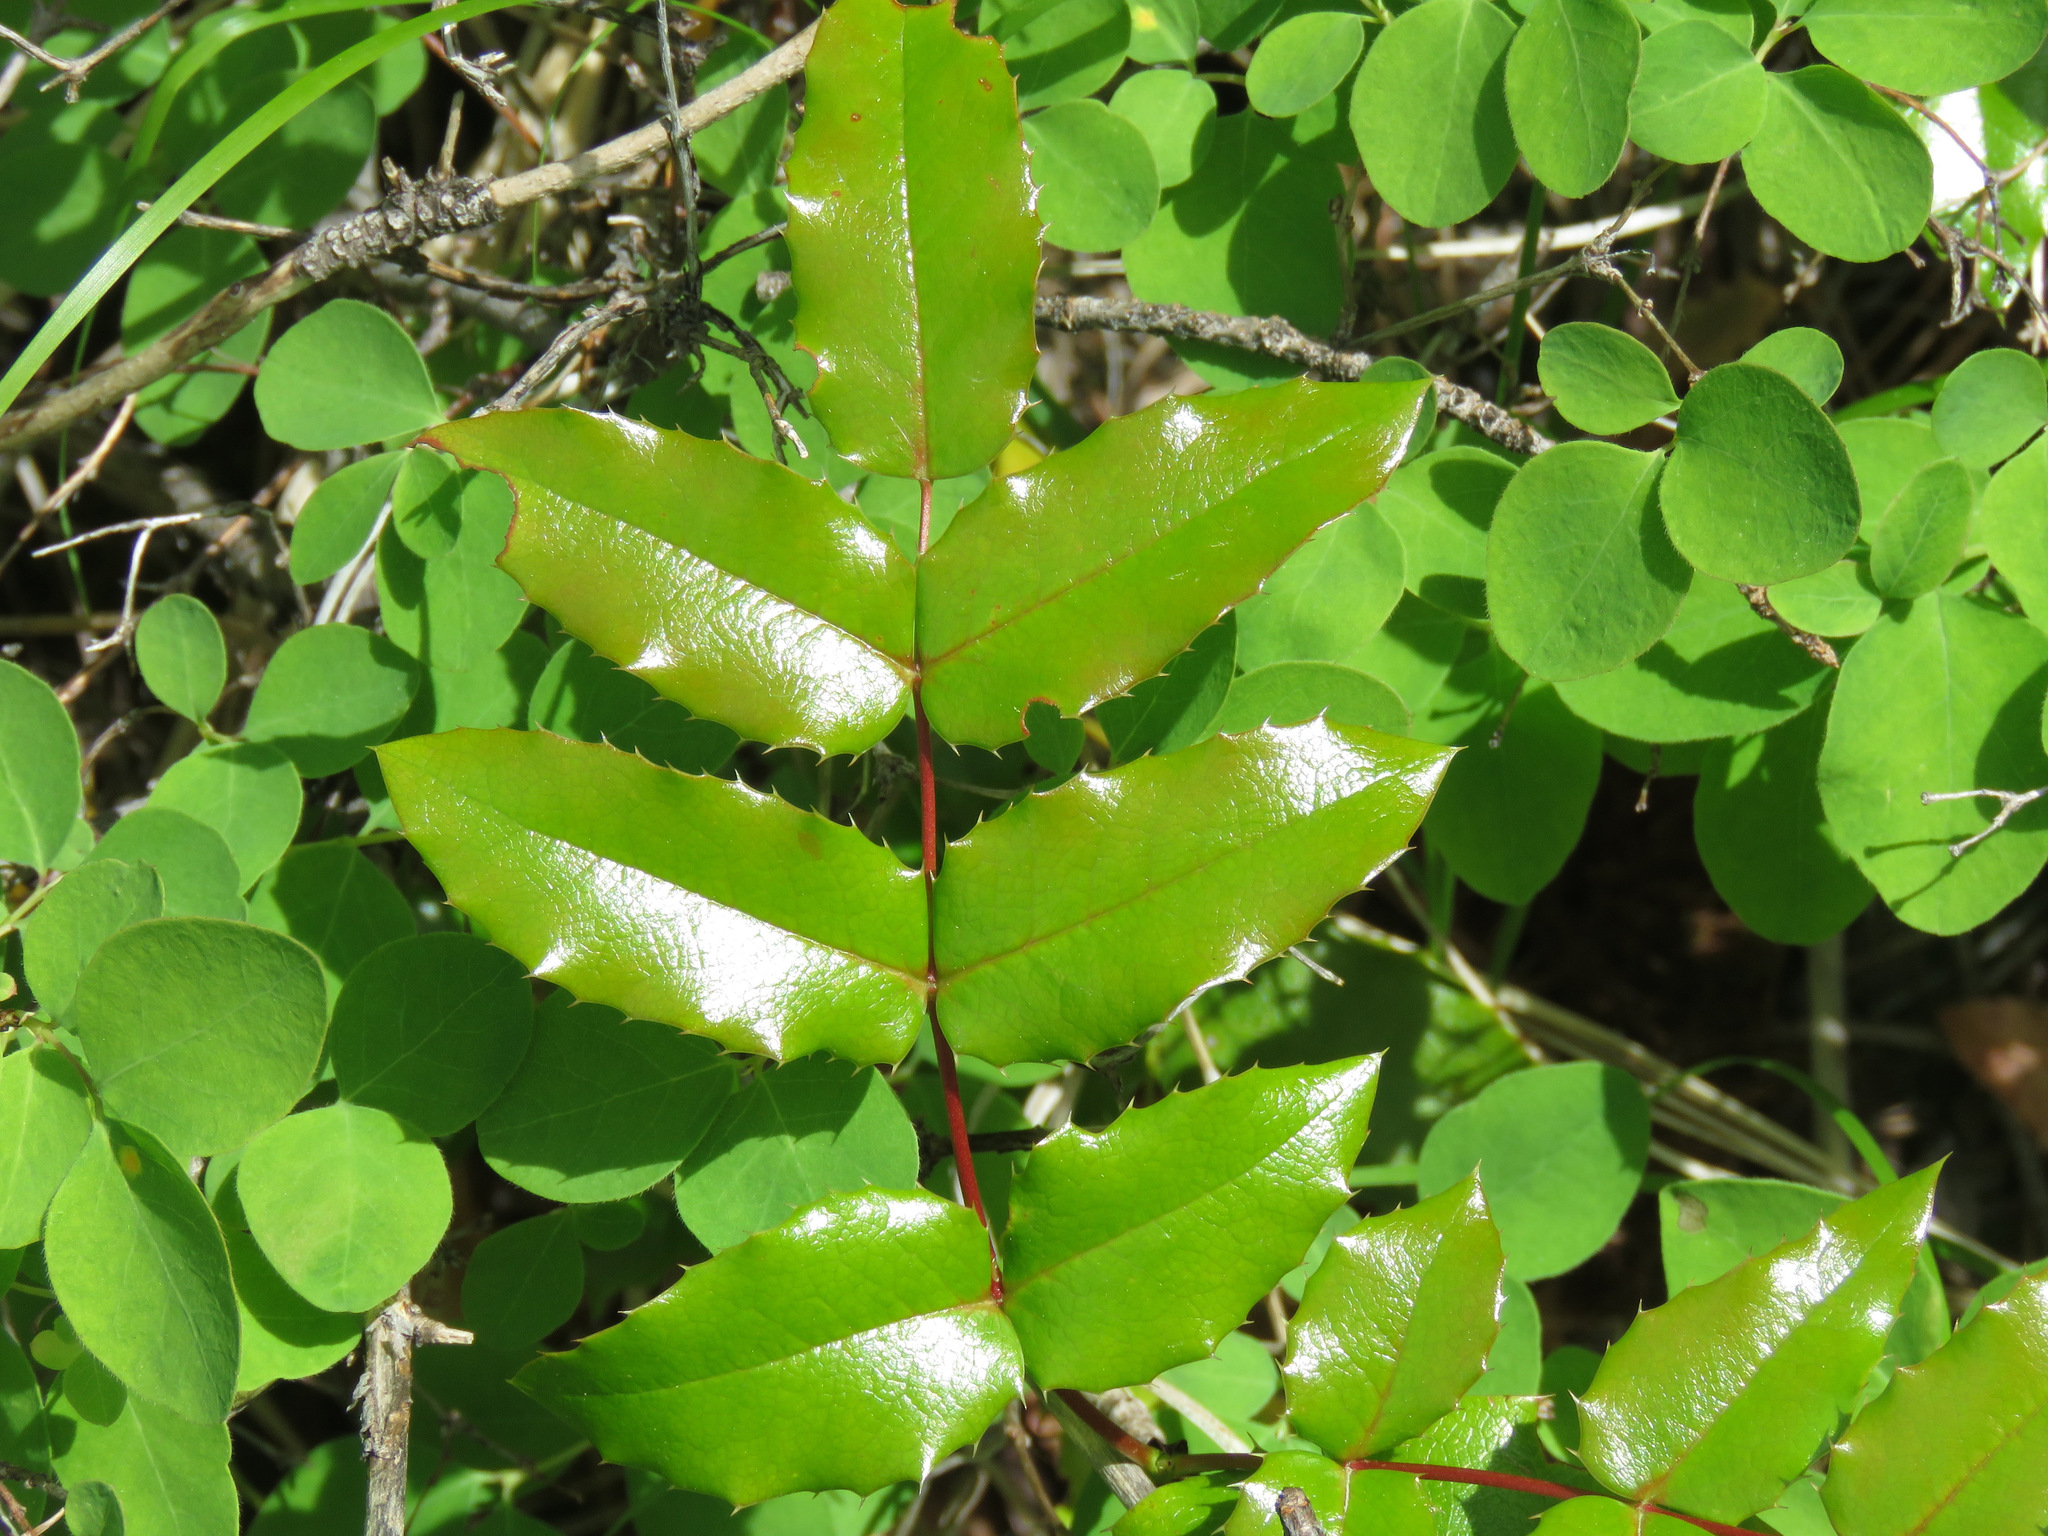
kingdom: Plantae
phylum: Tracheophyta
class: Magnoliopsida
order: Ranunculales
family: Berberidaceae
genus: Mahonia
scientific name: Mahonia aquifolium
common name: Oregon-grape
